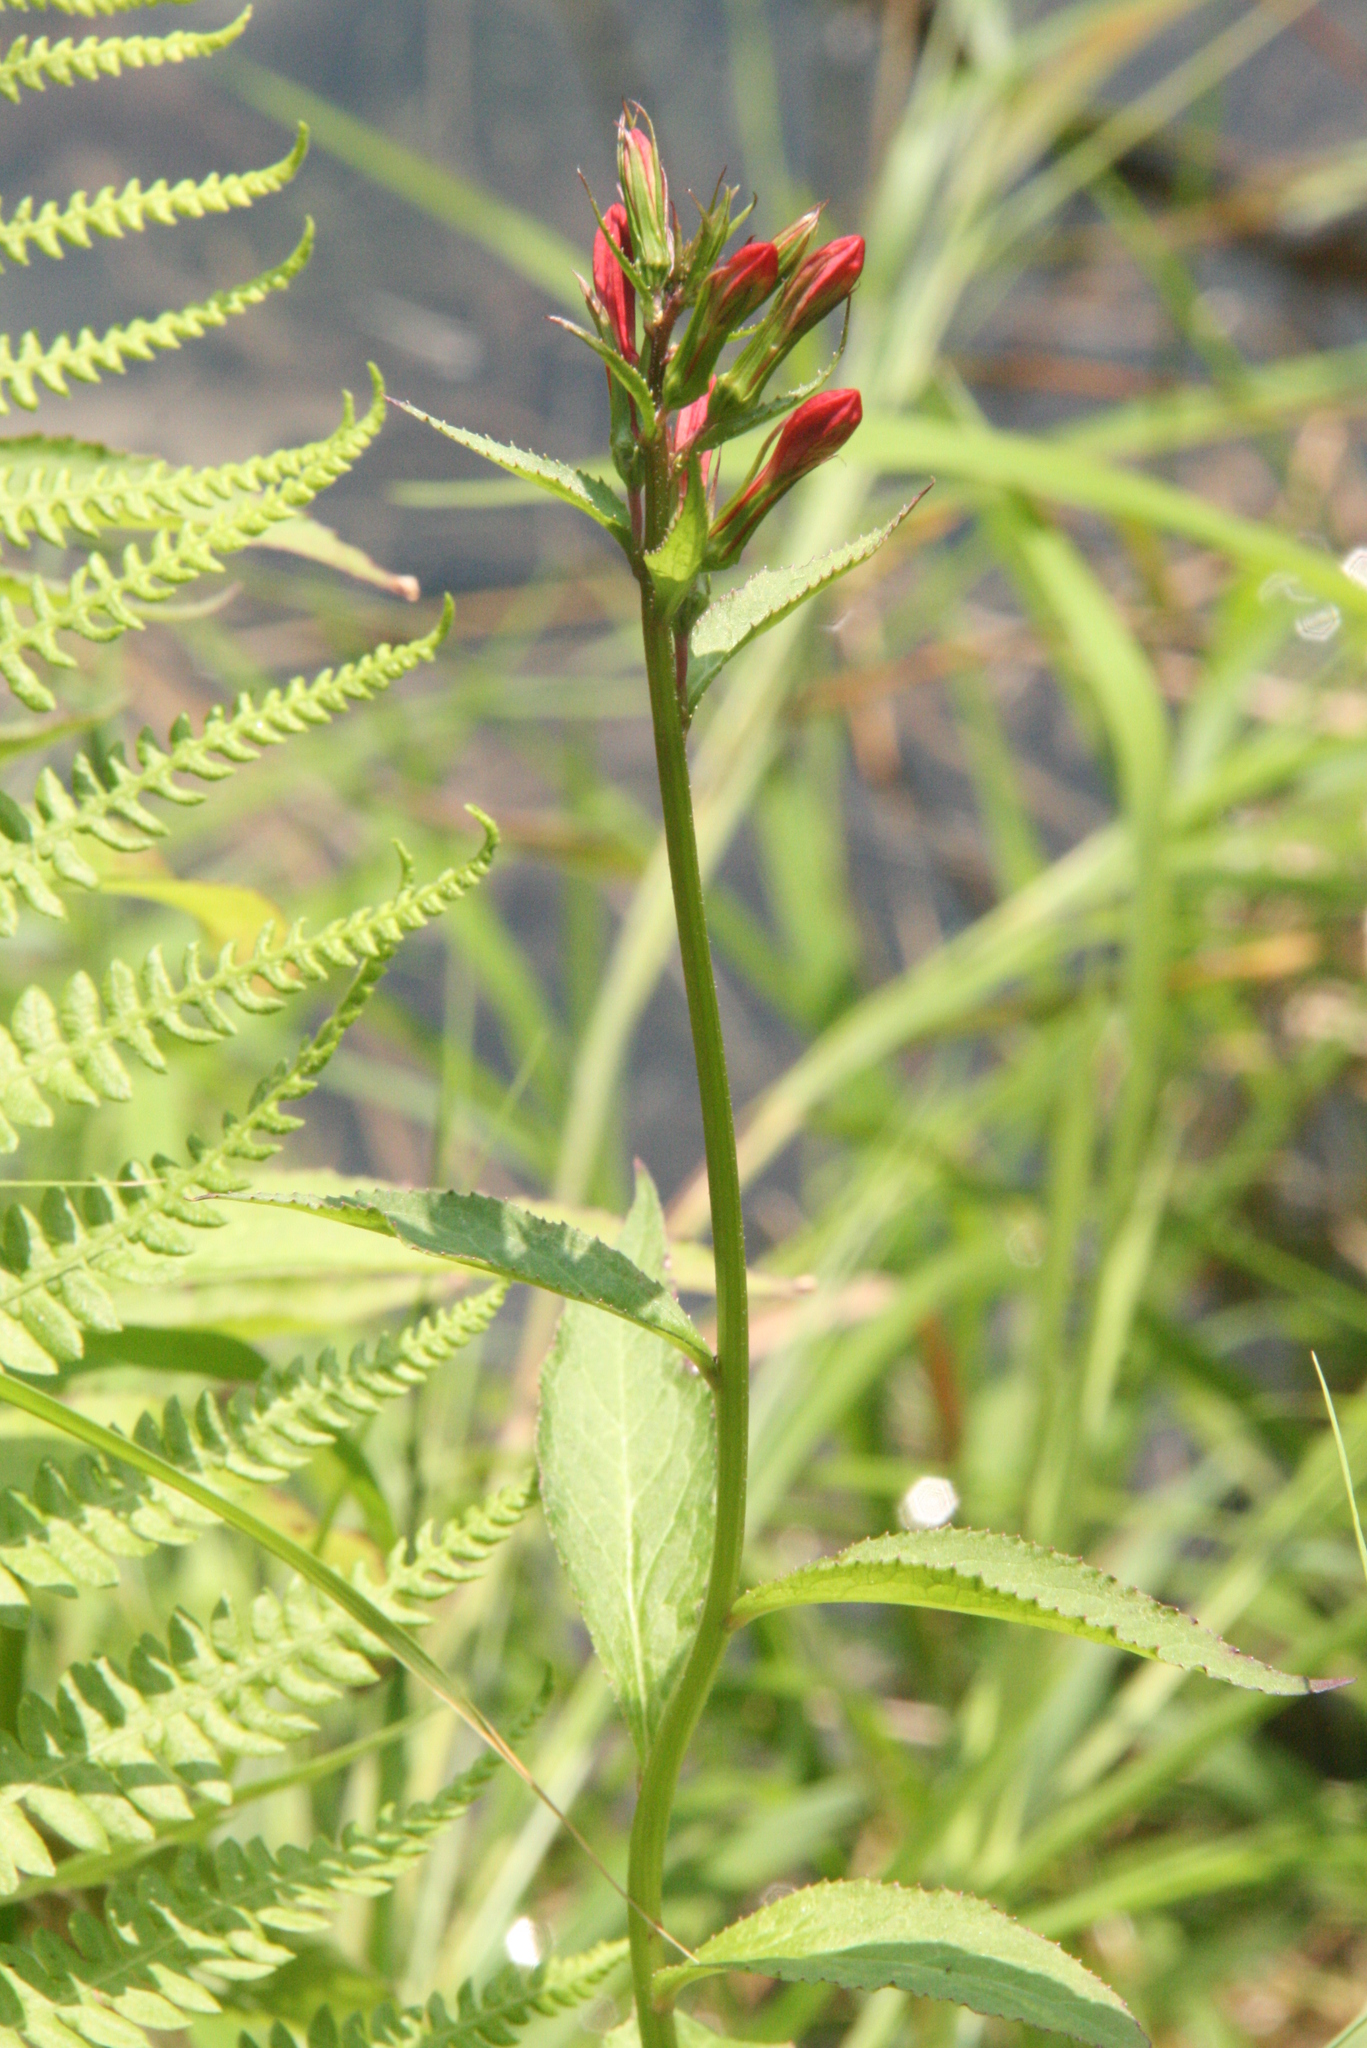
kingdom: Plantae
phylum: Tracheophyta
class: Magnoliopsida
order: Asterales
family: Campanulaceae
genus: Lobelia
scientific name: Lobelia cardinalis
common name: Cardinal flower
